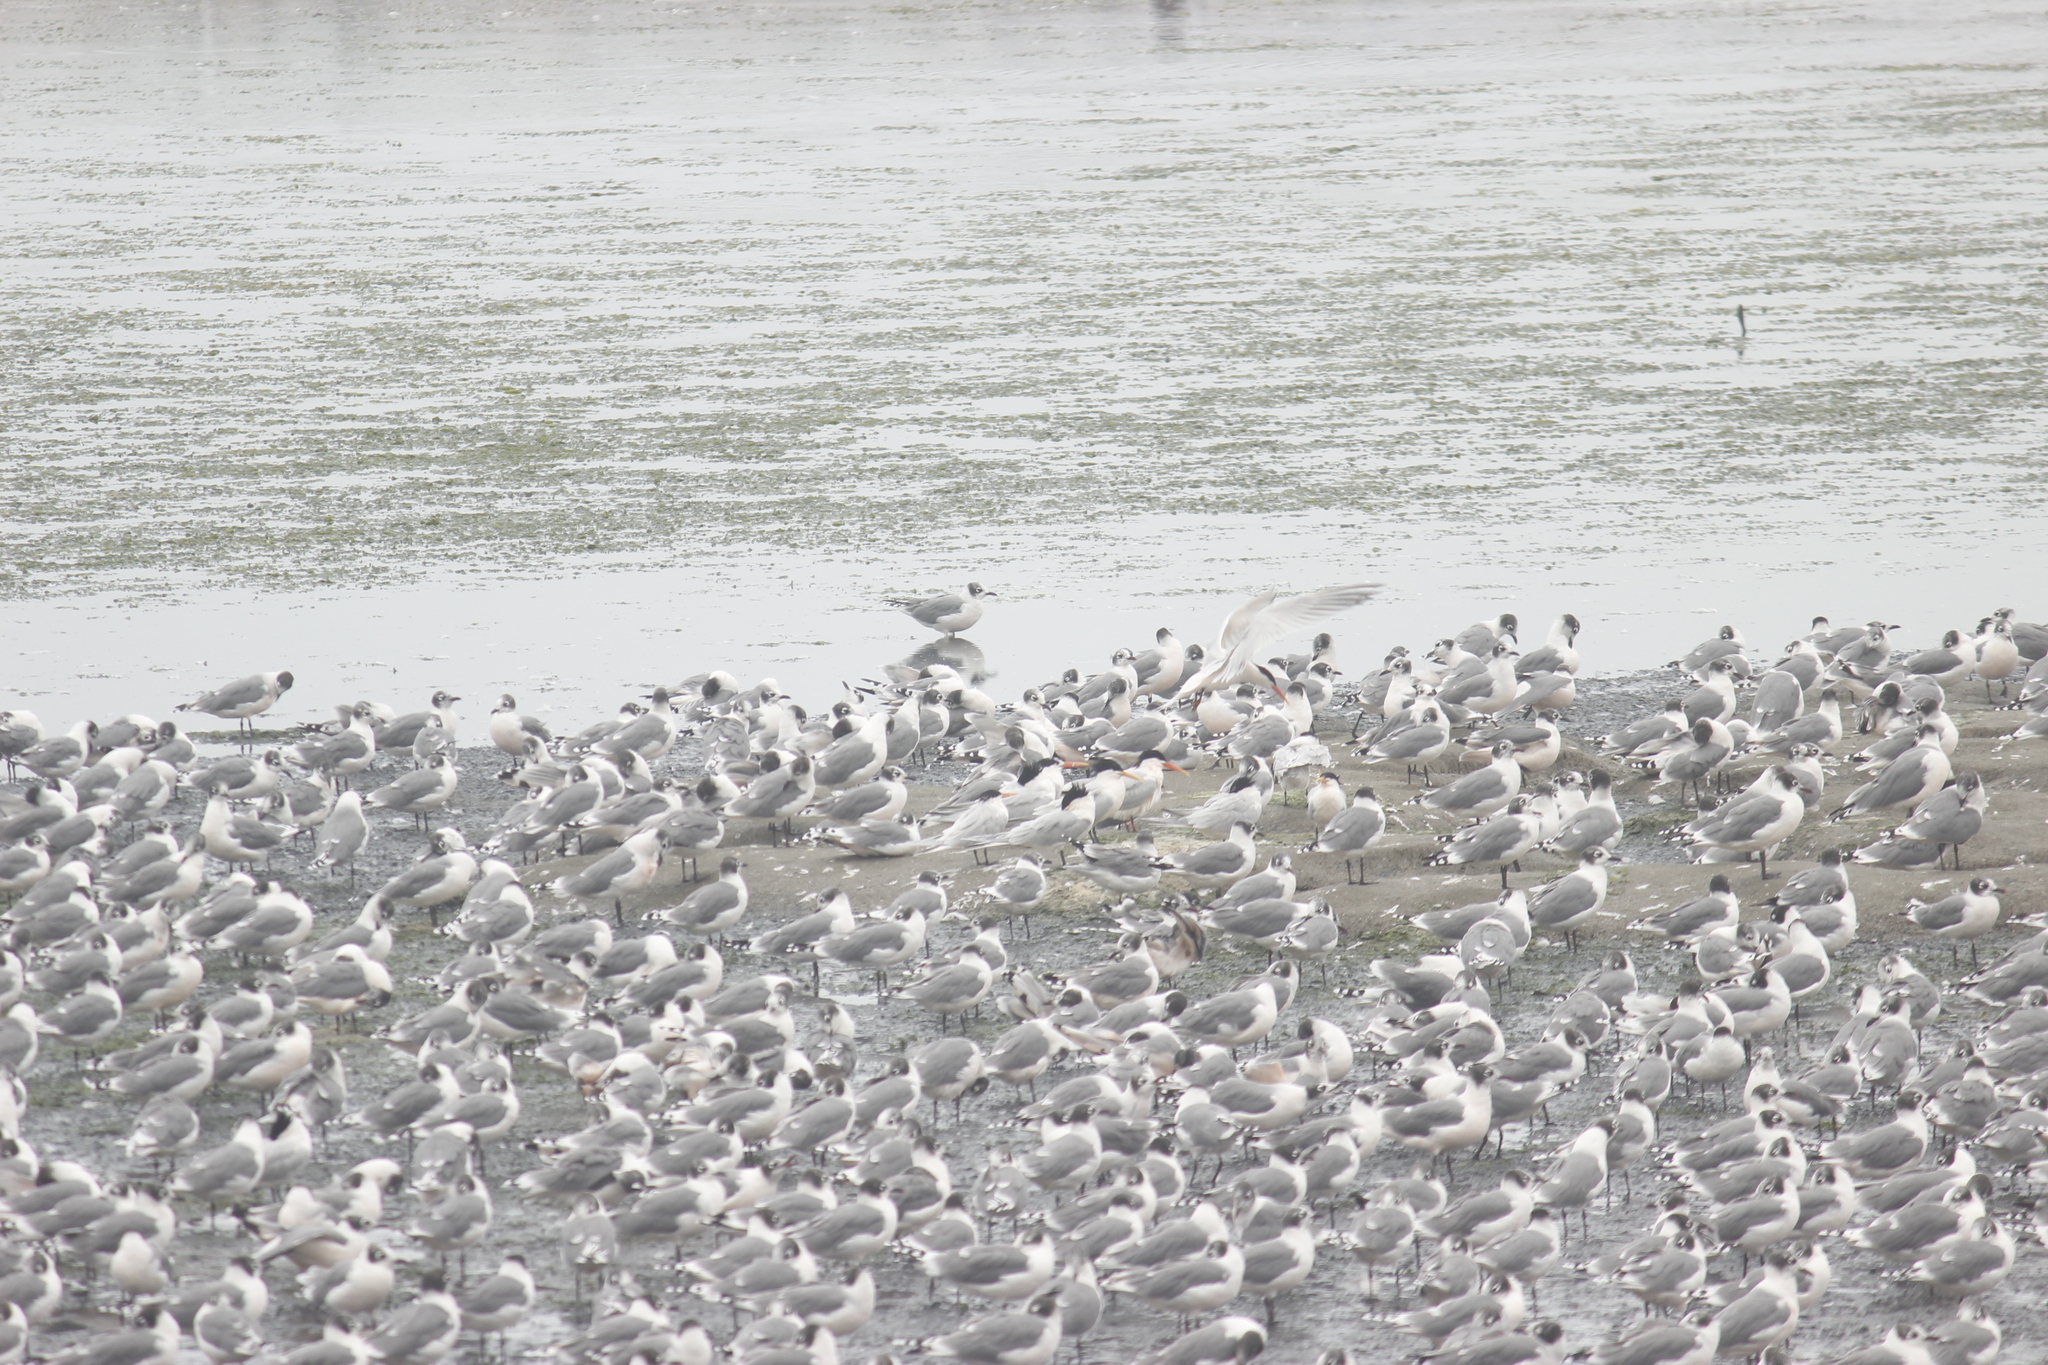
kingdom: Animalia
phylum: Chordata
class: Aves
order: Charadriiformes
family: Laridae
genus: Leucophaeus
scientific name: Leucophaeus pipixcan
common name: Franklin's gull
